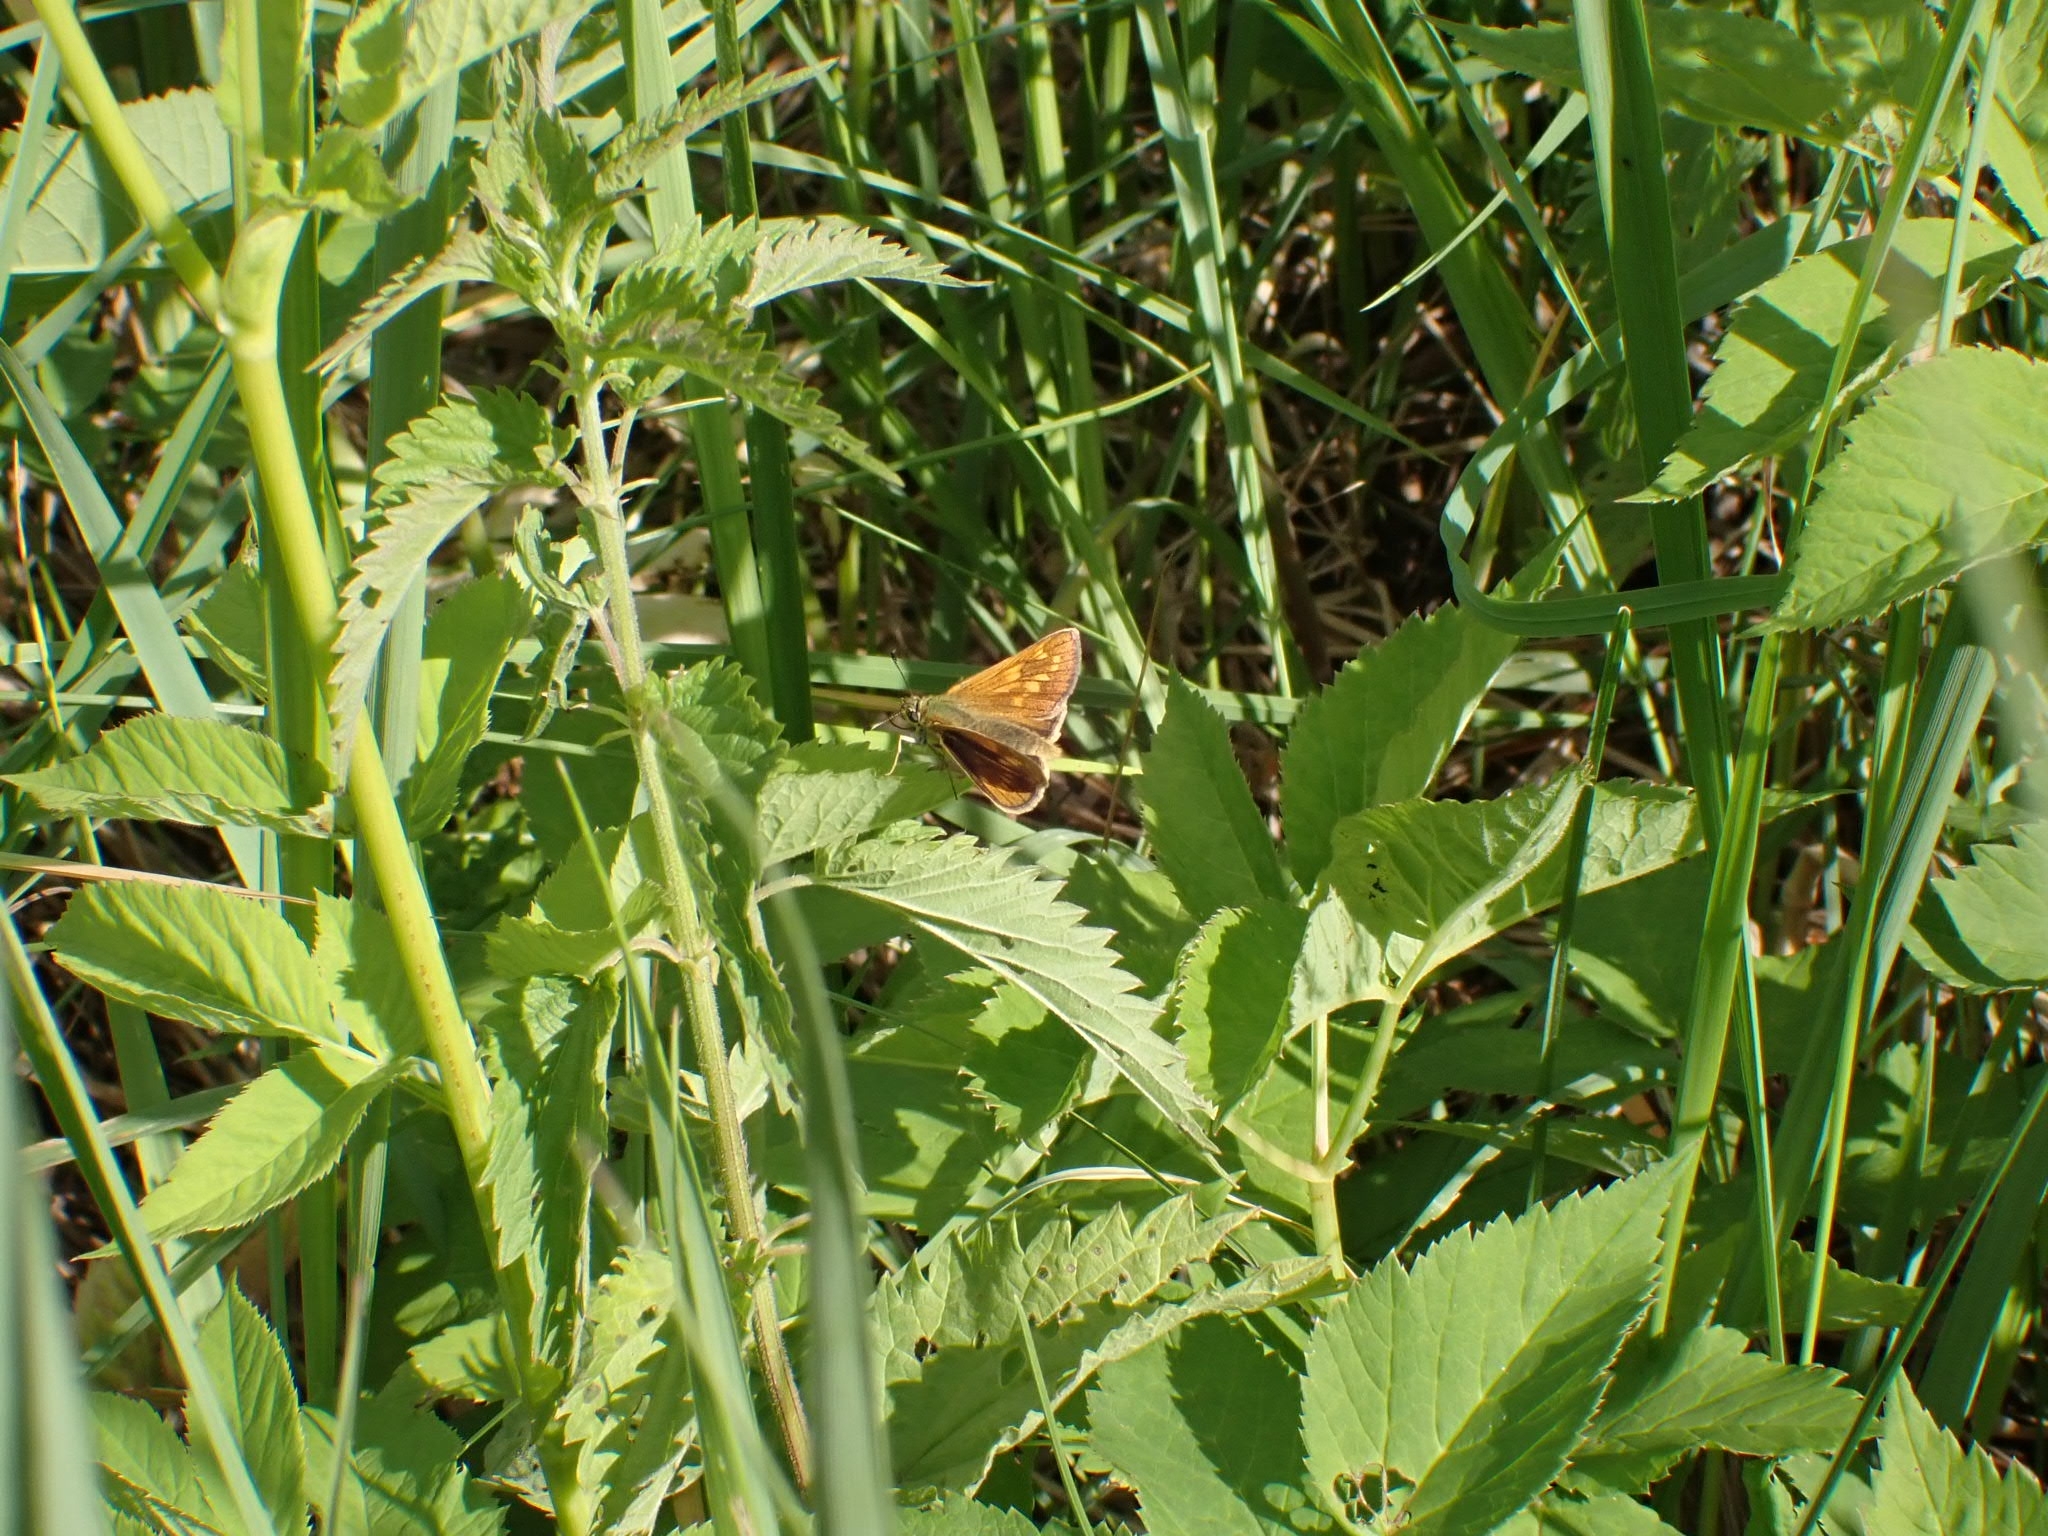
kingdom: Animalia
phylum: Arthropoda
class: Insecta
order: Lepidoptera
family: Hesperiidae
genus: Ochlodes
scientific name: Ochlodes venata
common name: Large skipper
